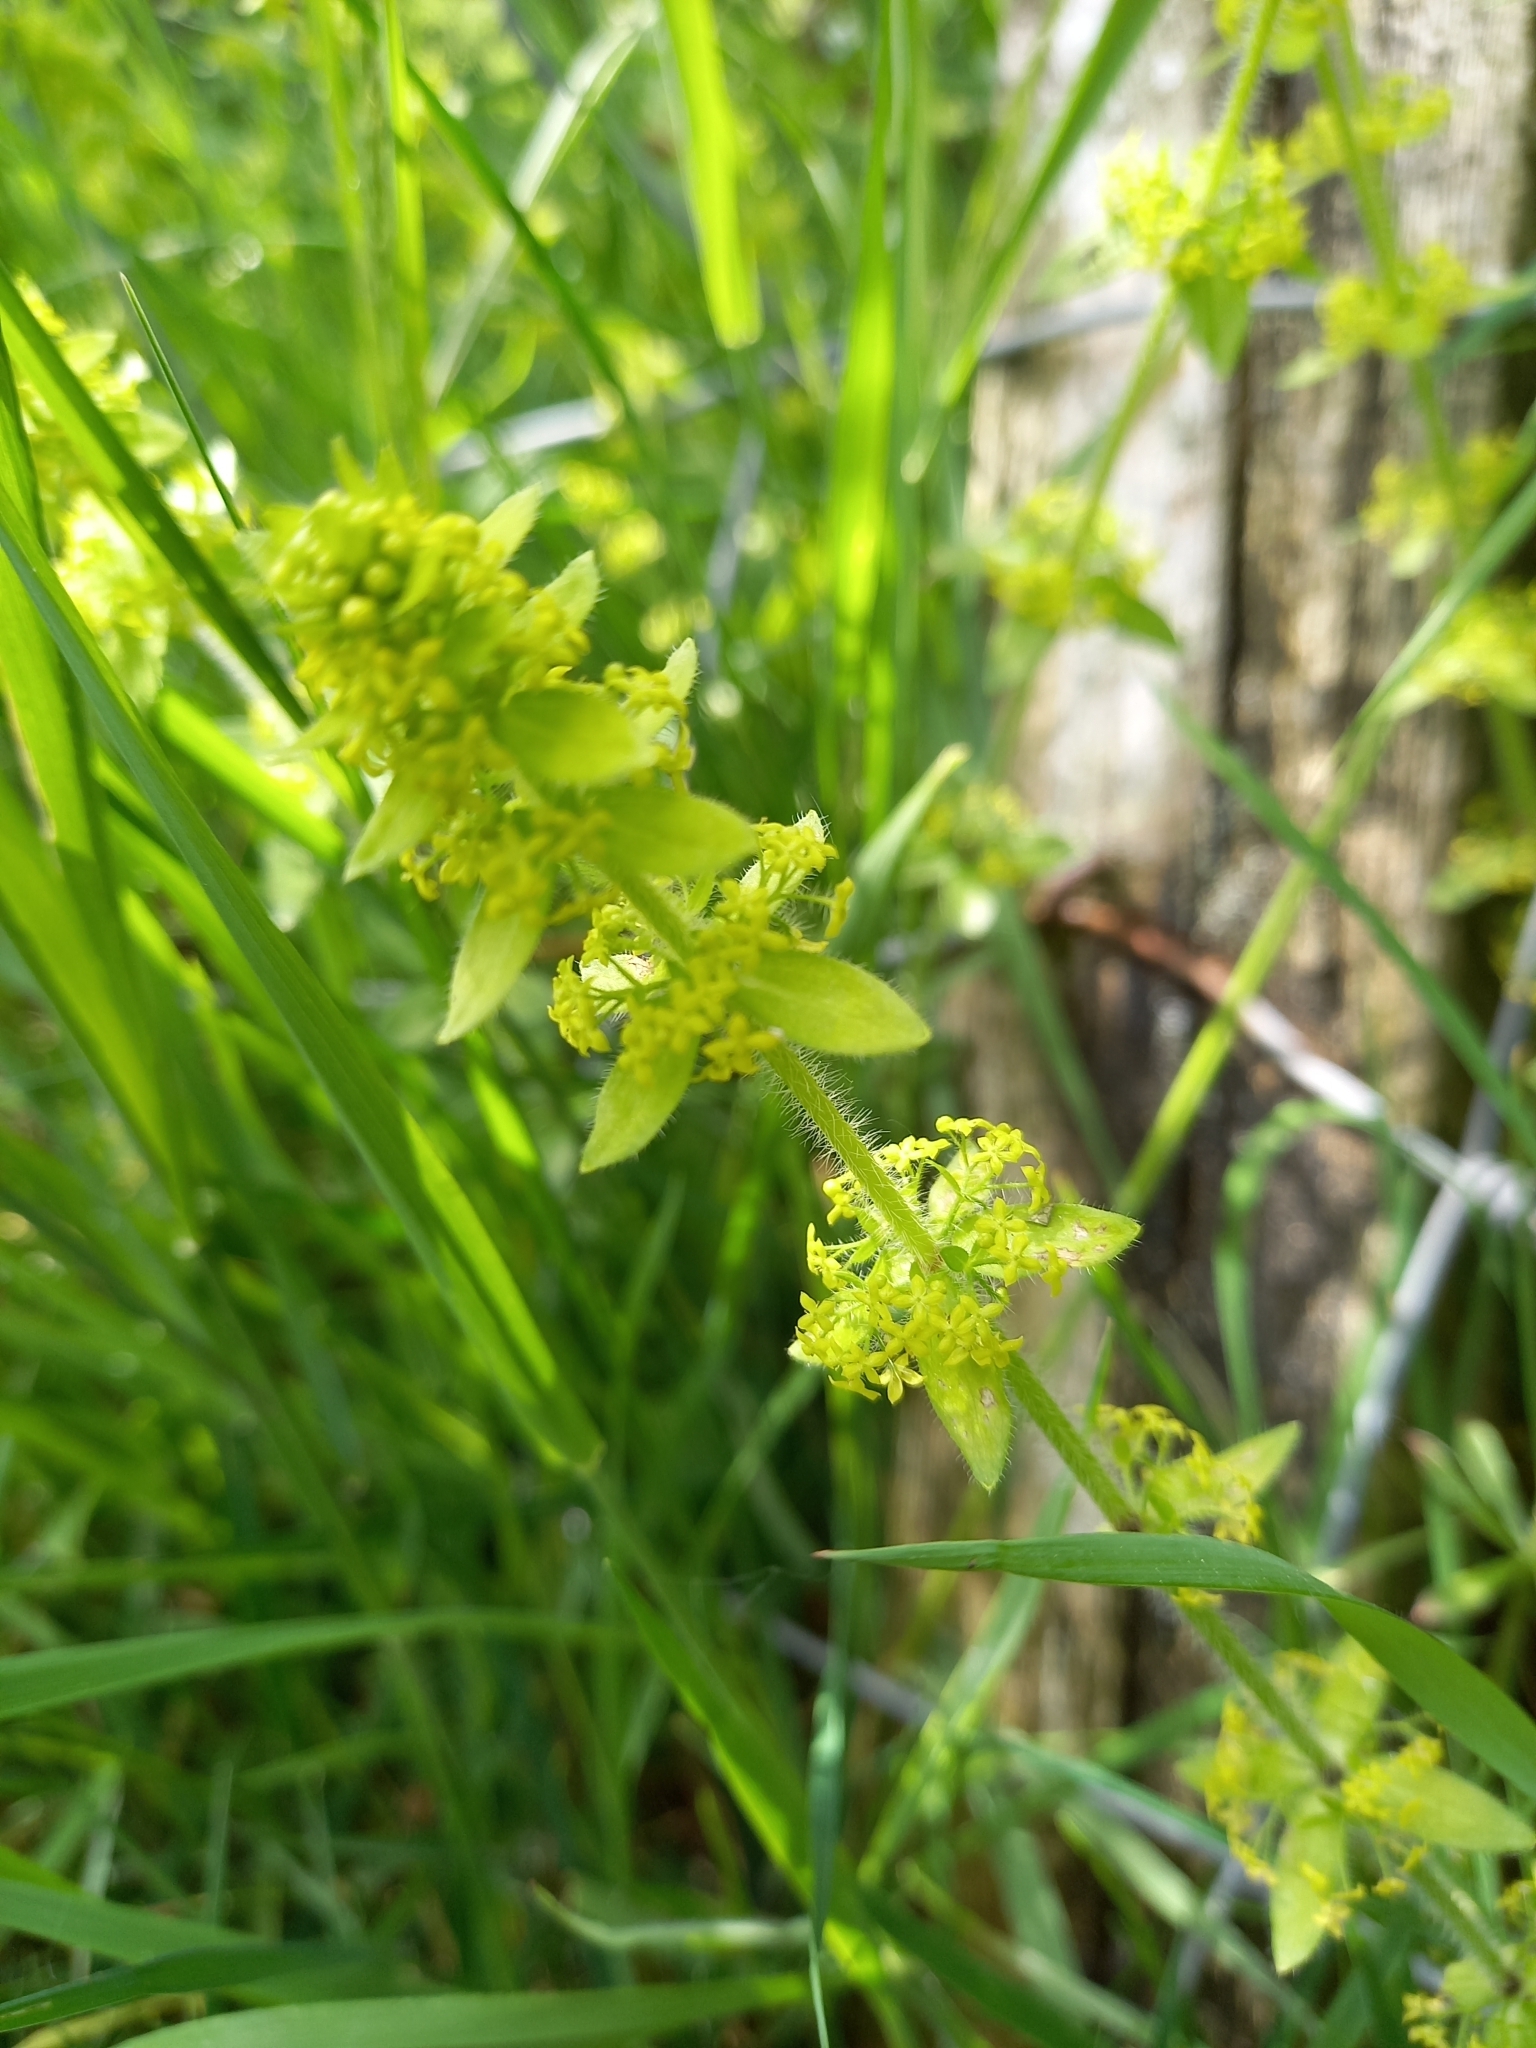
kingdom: Plantae
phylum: Tracheophyta
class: Magnoliopsida
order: Gentianales
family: Rubiaceae
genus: Cruciata
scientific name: Cruciata laevipes
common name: Crosswort
